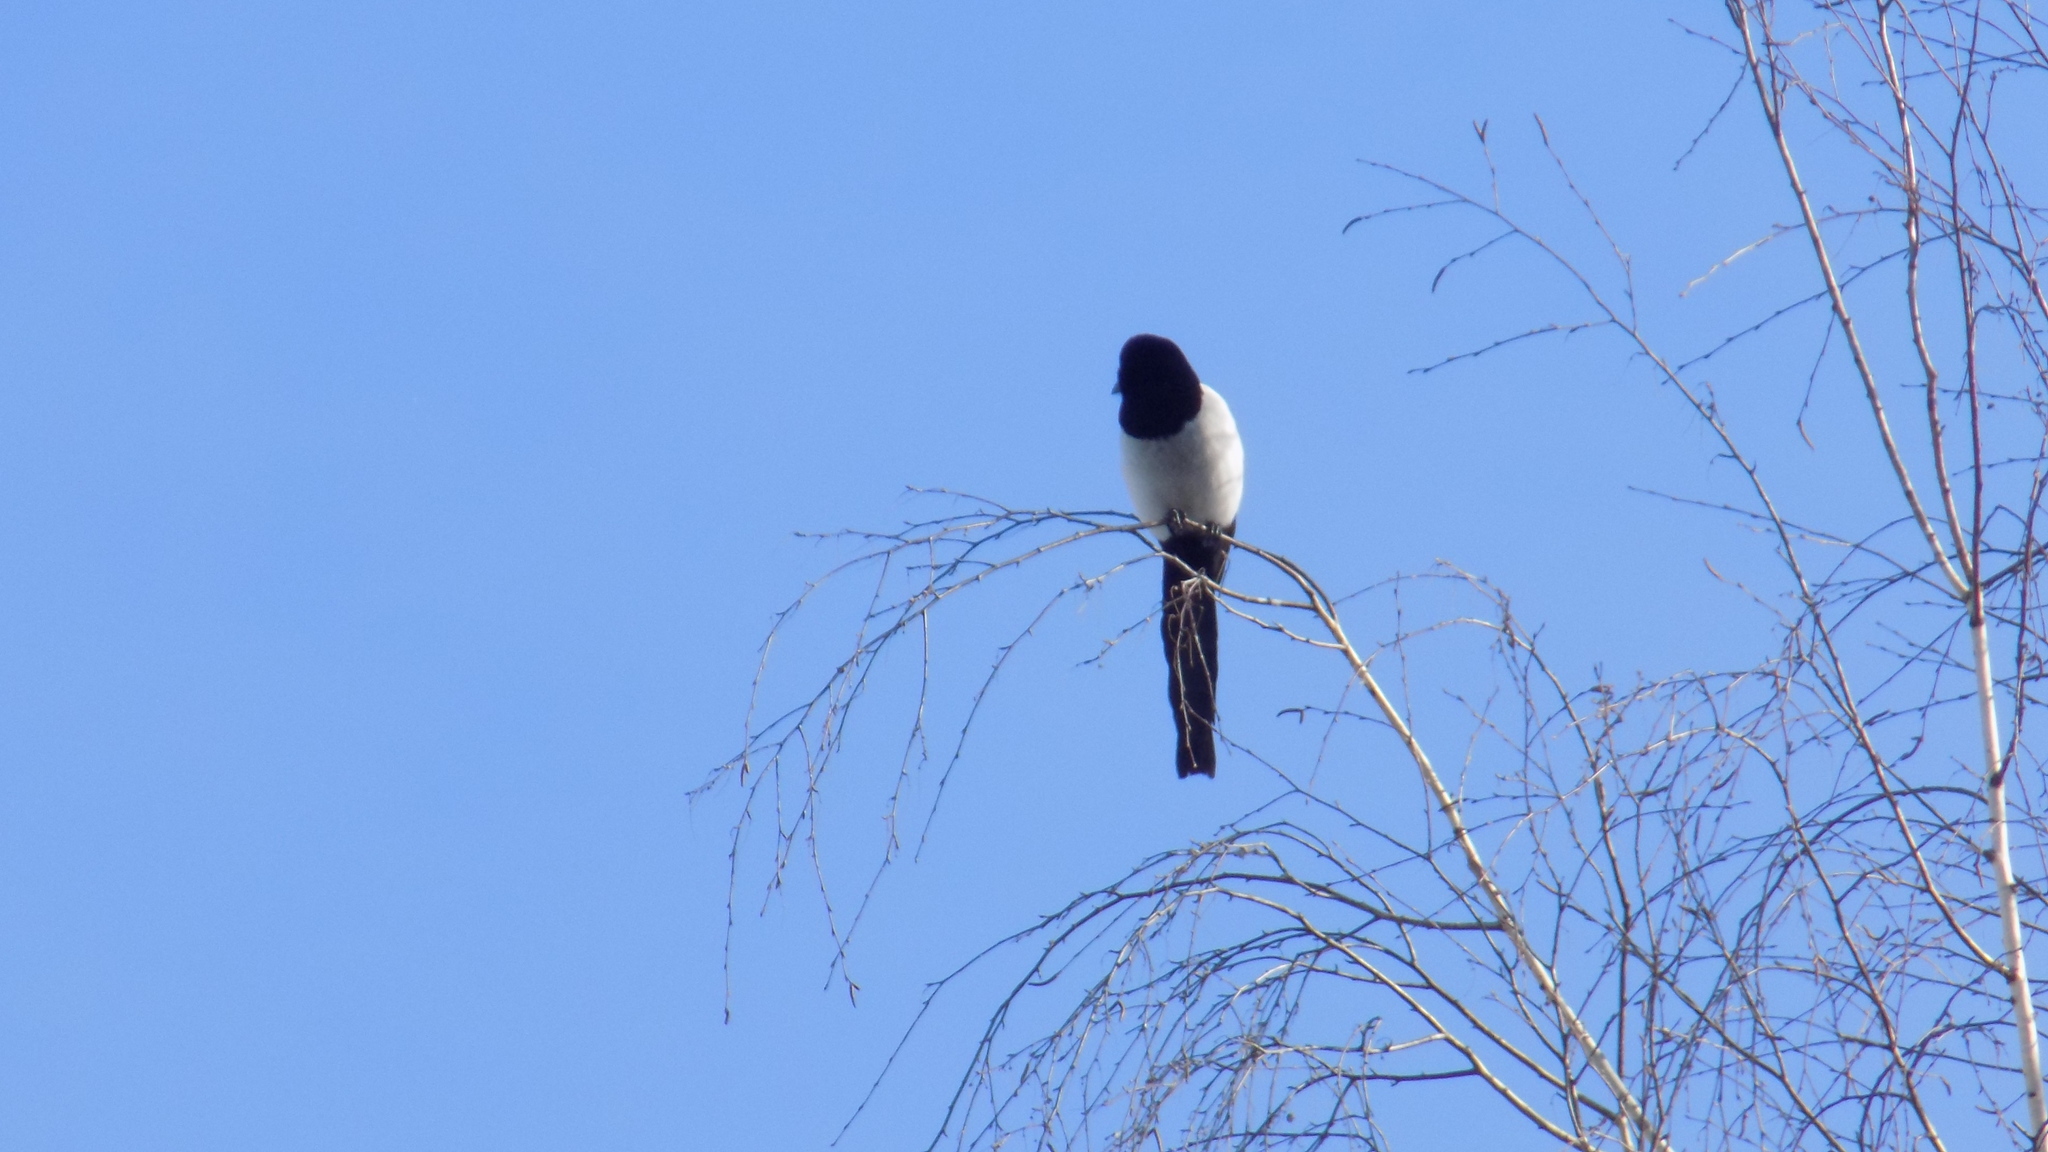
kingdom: Animalia
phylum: Chordata
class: Aves
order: Passeriformes
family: Corvidae
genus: Pica
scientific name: Pica pica
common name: Eurasian magpie
